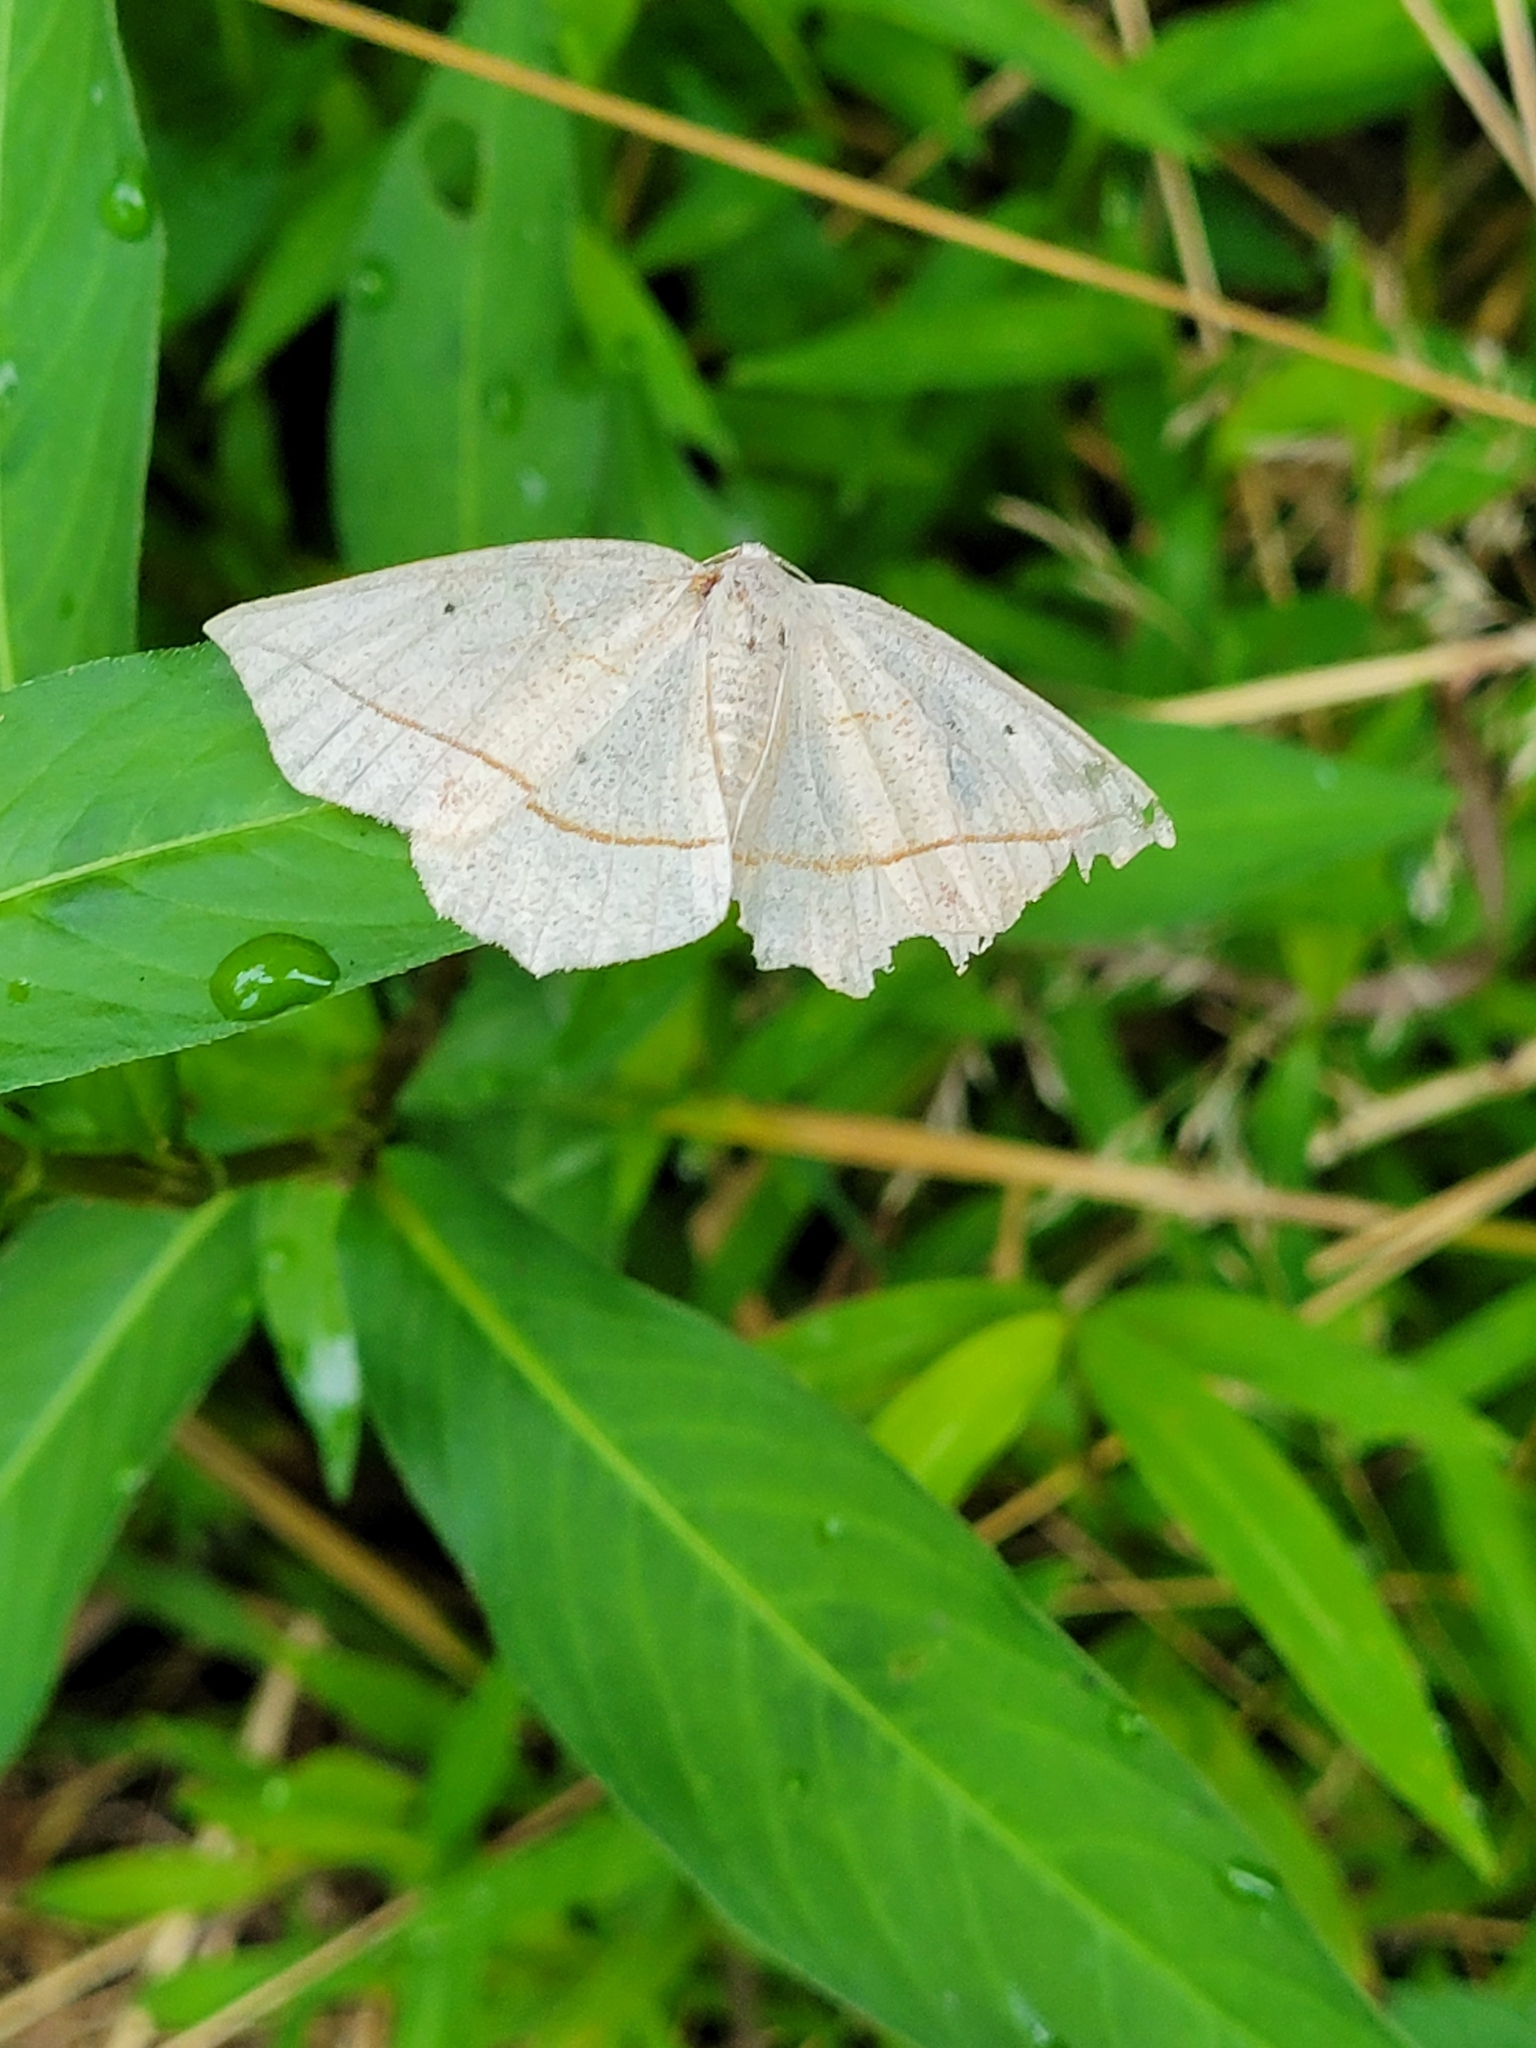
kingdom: Animalia
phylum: Arthropoda
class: Insecta
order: Lepidoptera
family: Geometridae
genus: Eusarca
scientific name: Eusarca confusaria
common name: Confused eusarca
